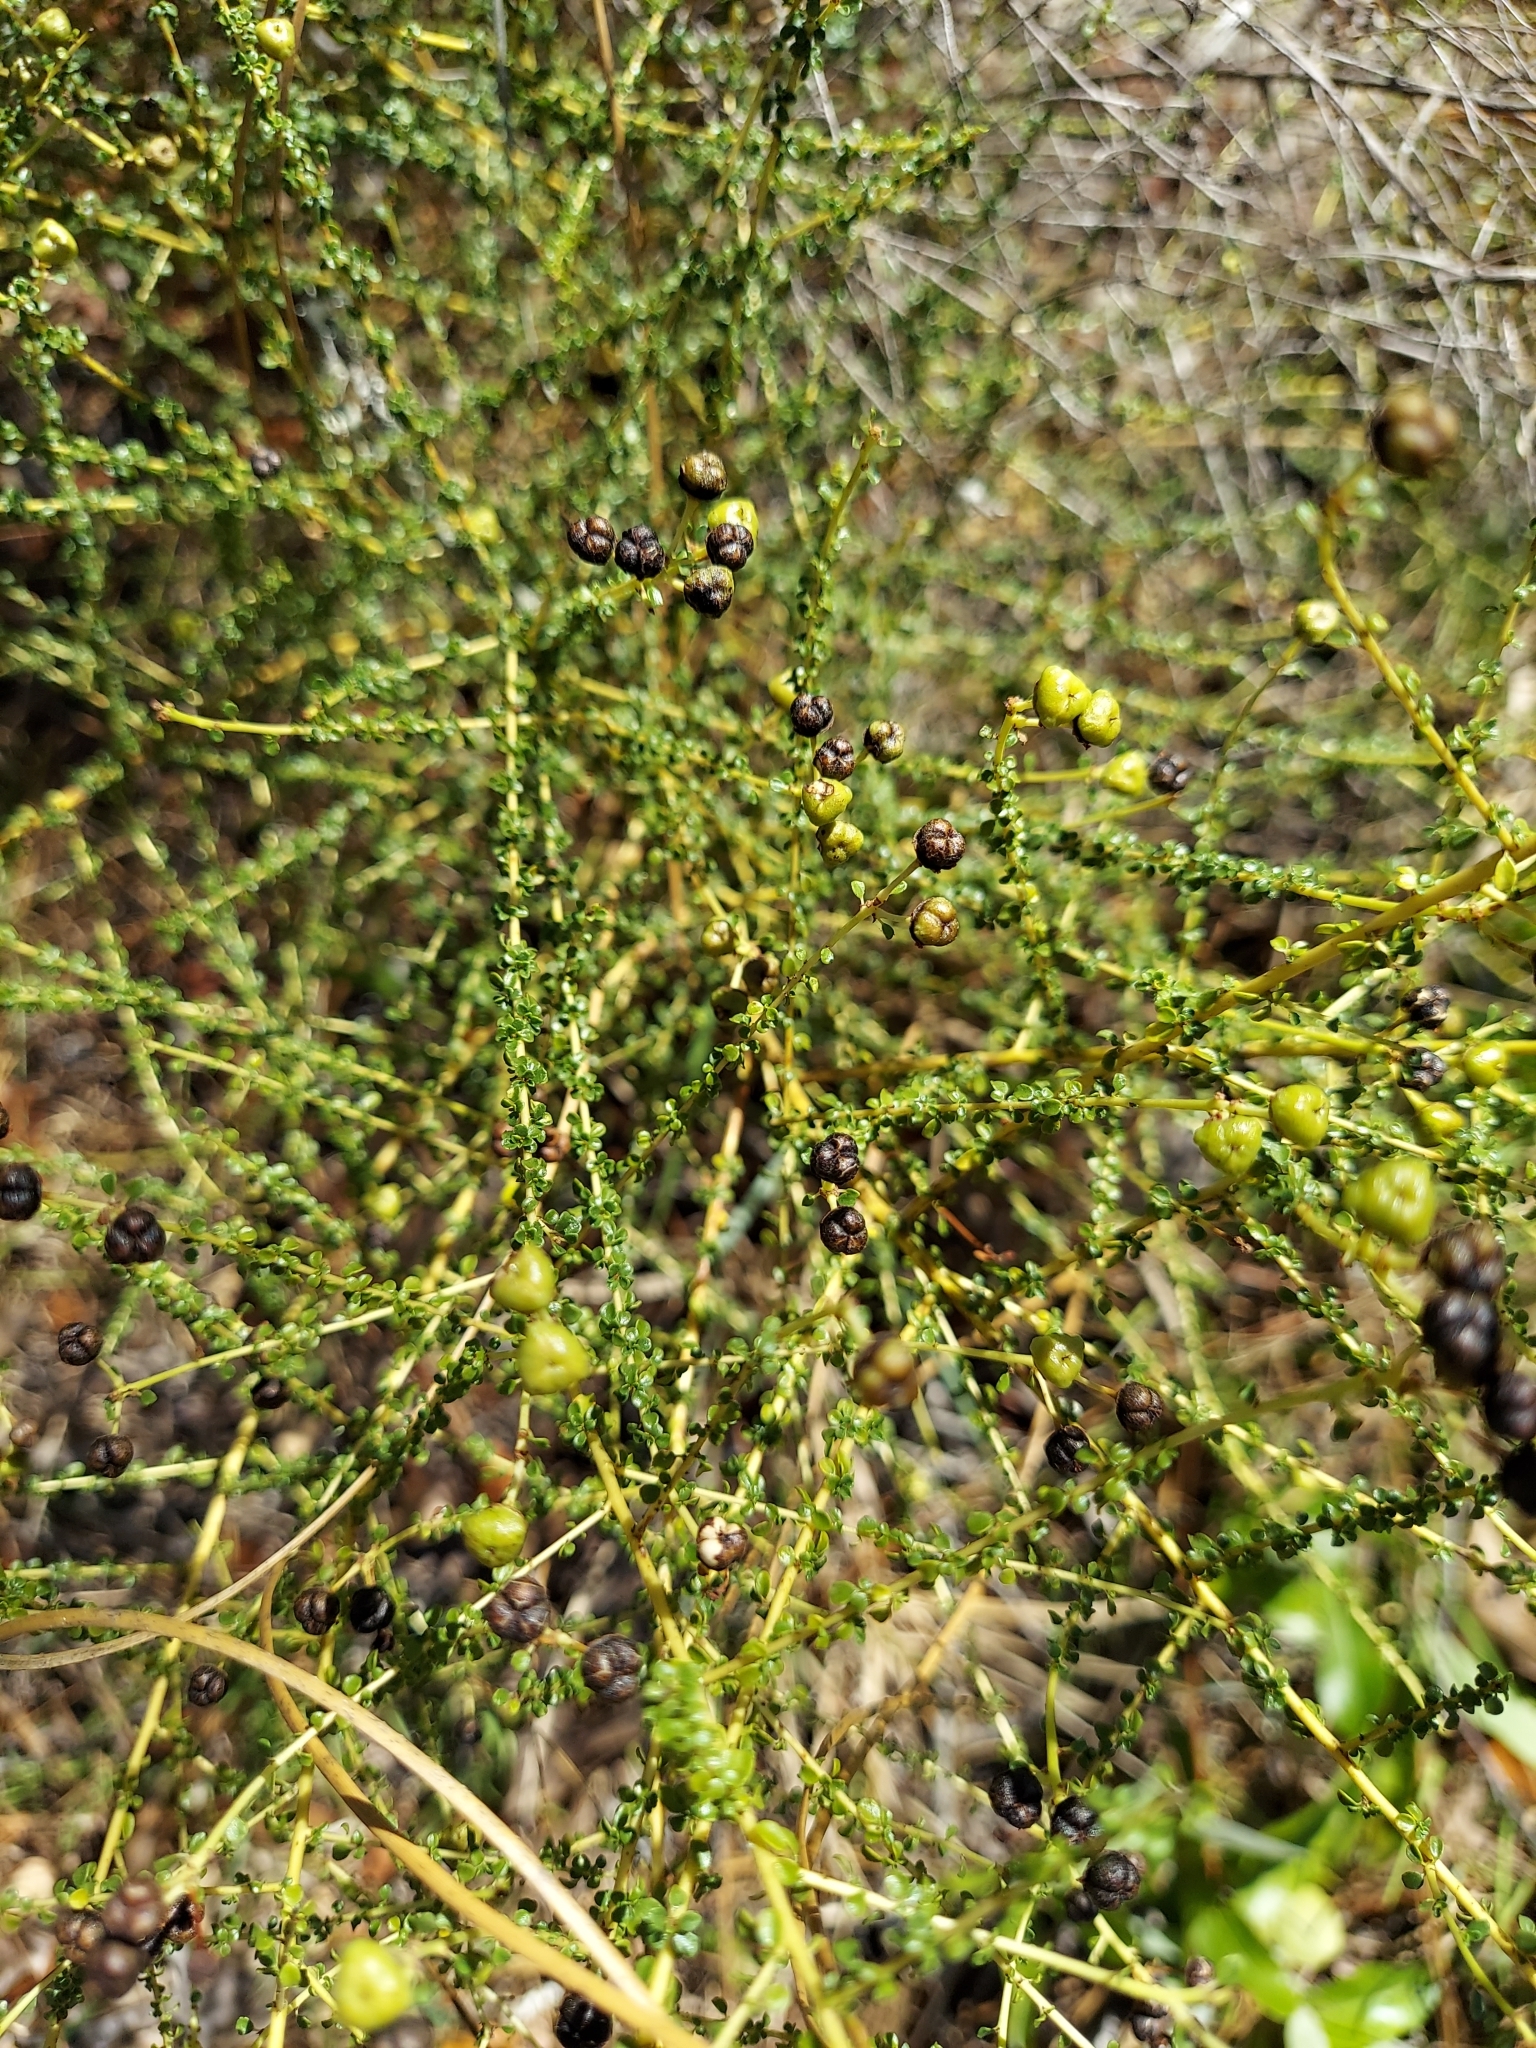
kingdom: Plantae
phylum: Tracheophyta
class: Magnoliopsida
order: Rosales
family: Rhamnaceae
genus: Ceanothus
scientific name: Ceanothus microphyllus
